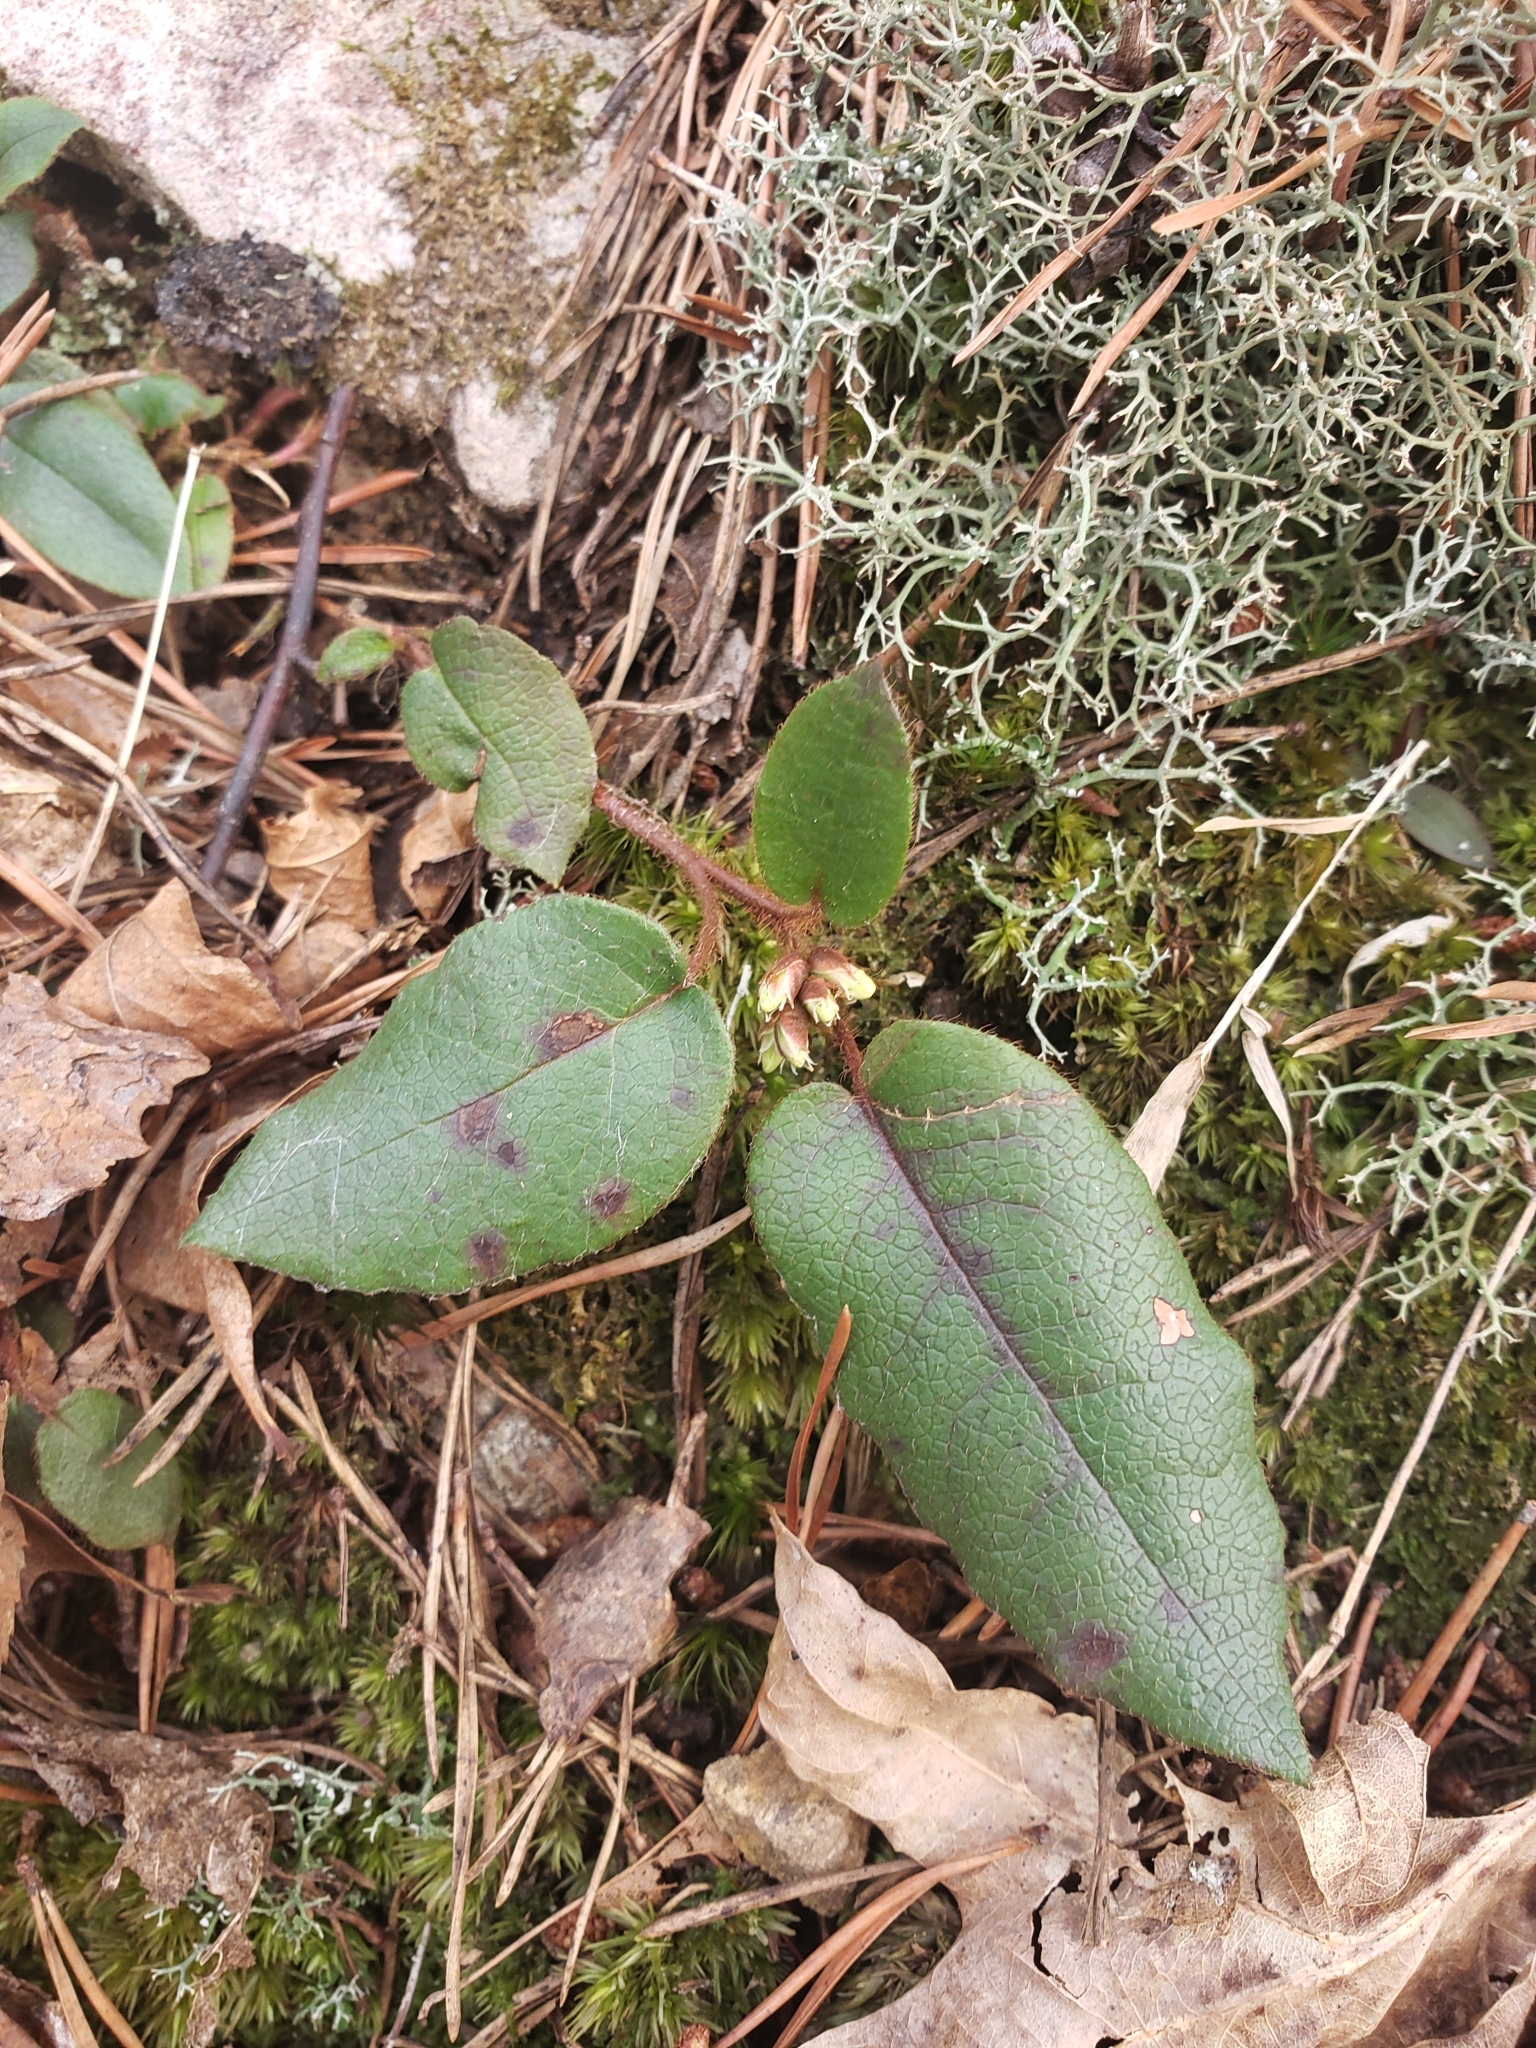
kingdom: Plantae
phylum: Tracheophyta
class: Magnoliopsida
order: Ericales
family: Ericaceae
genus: Epigaea
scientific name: Epigaea repens
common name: Gravelroot
